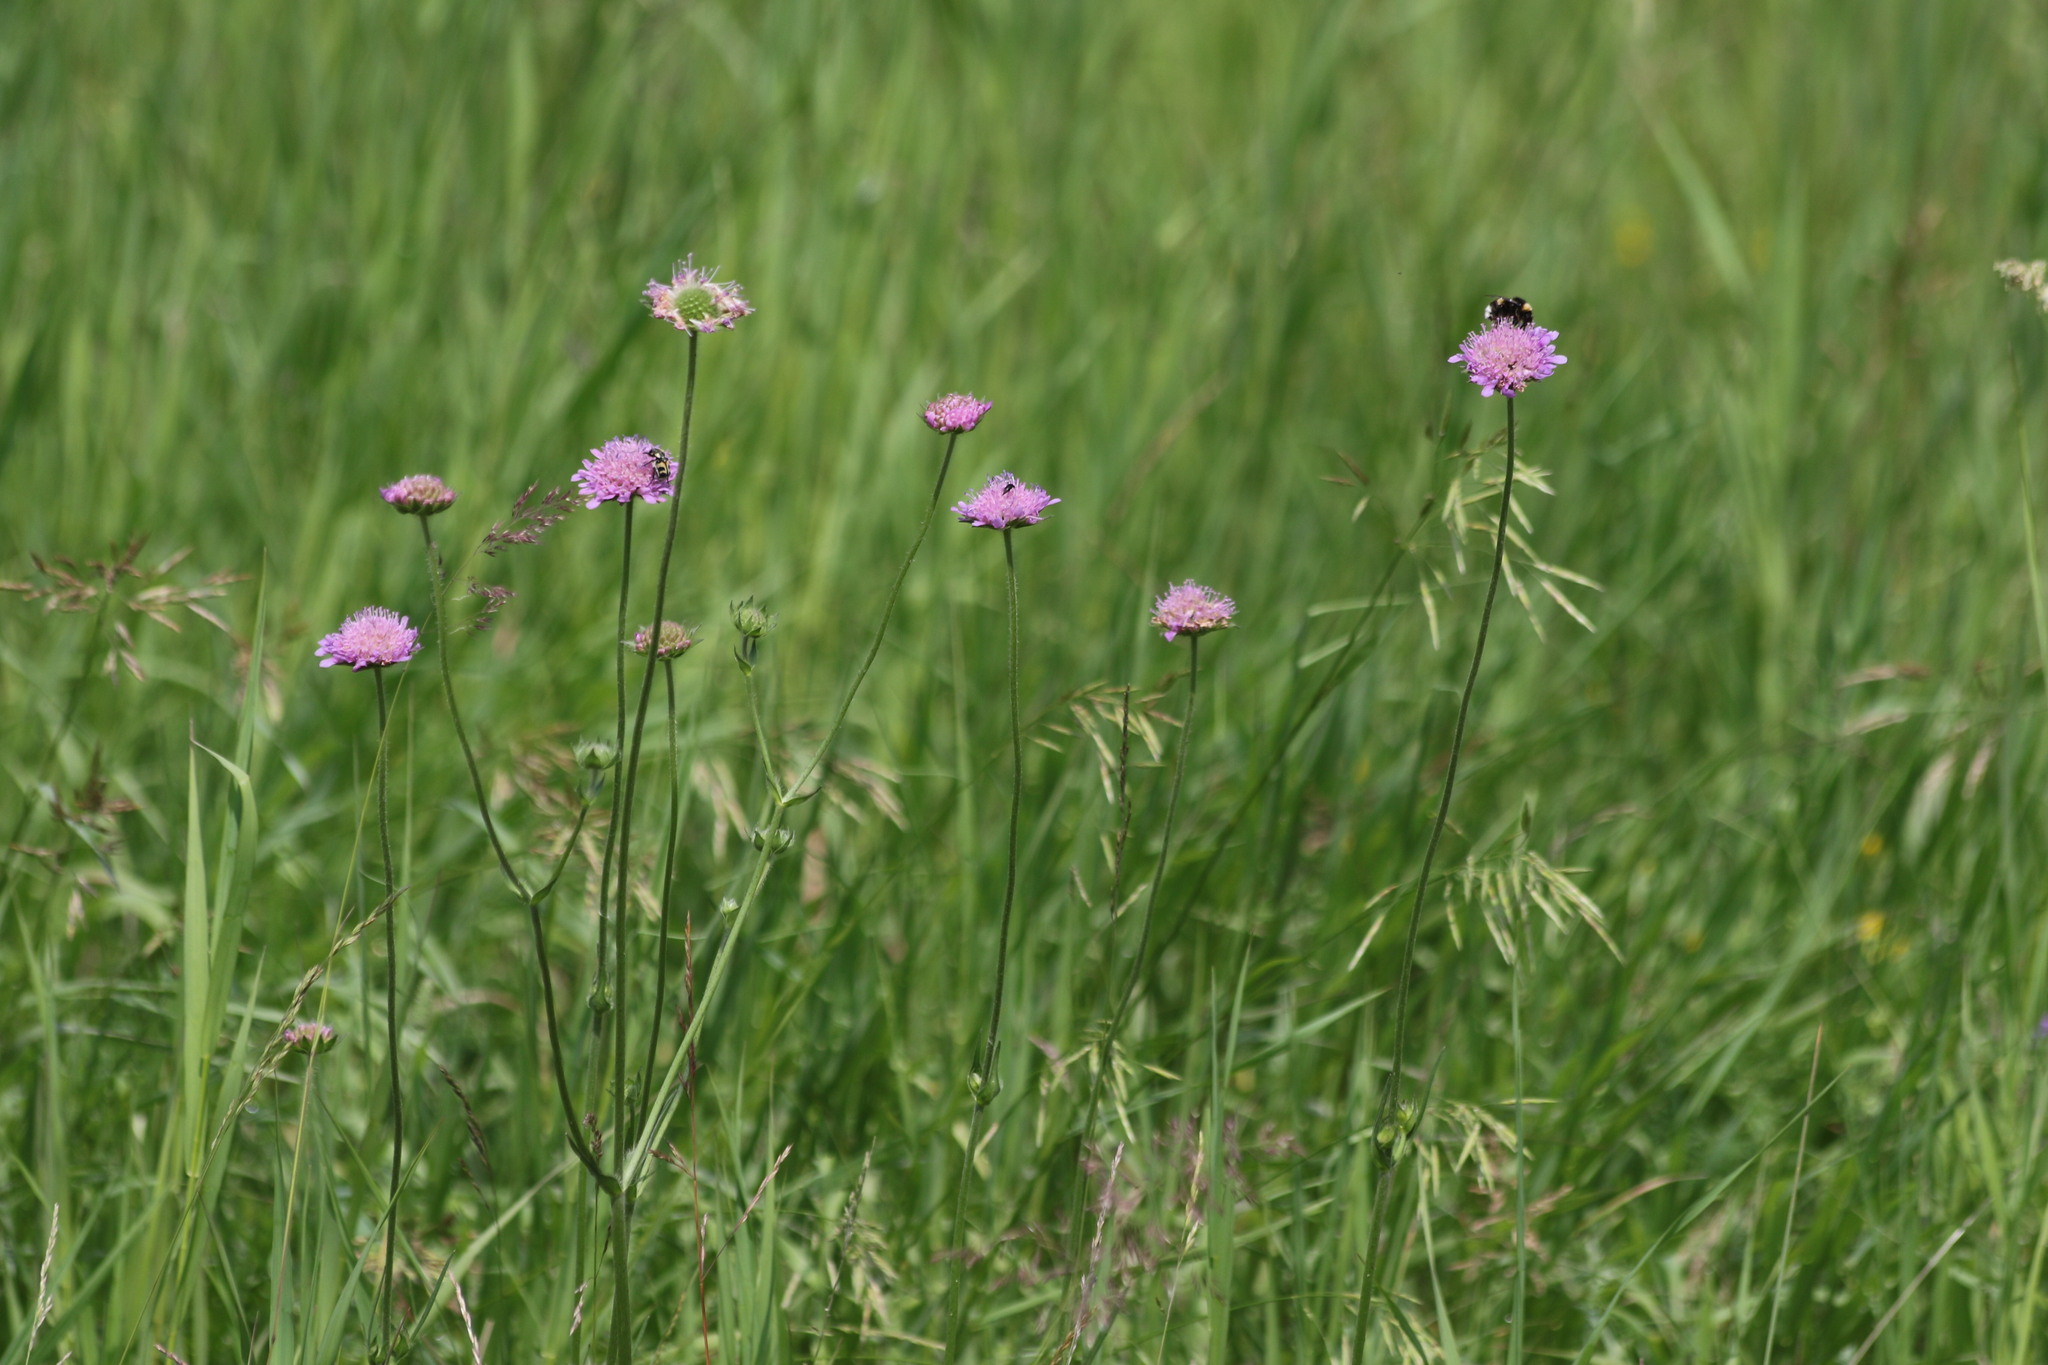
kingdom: Plantae
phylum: Tracheophyta
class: Magnoliopsida
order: Dipsacales
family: Caprifoliaceae
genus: Knautia
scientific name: Knautia arvensis
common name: Field scabiosa
